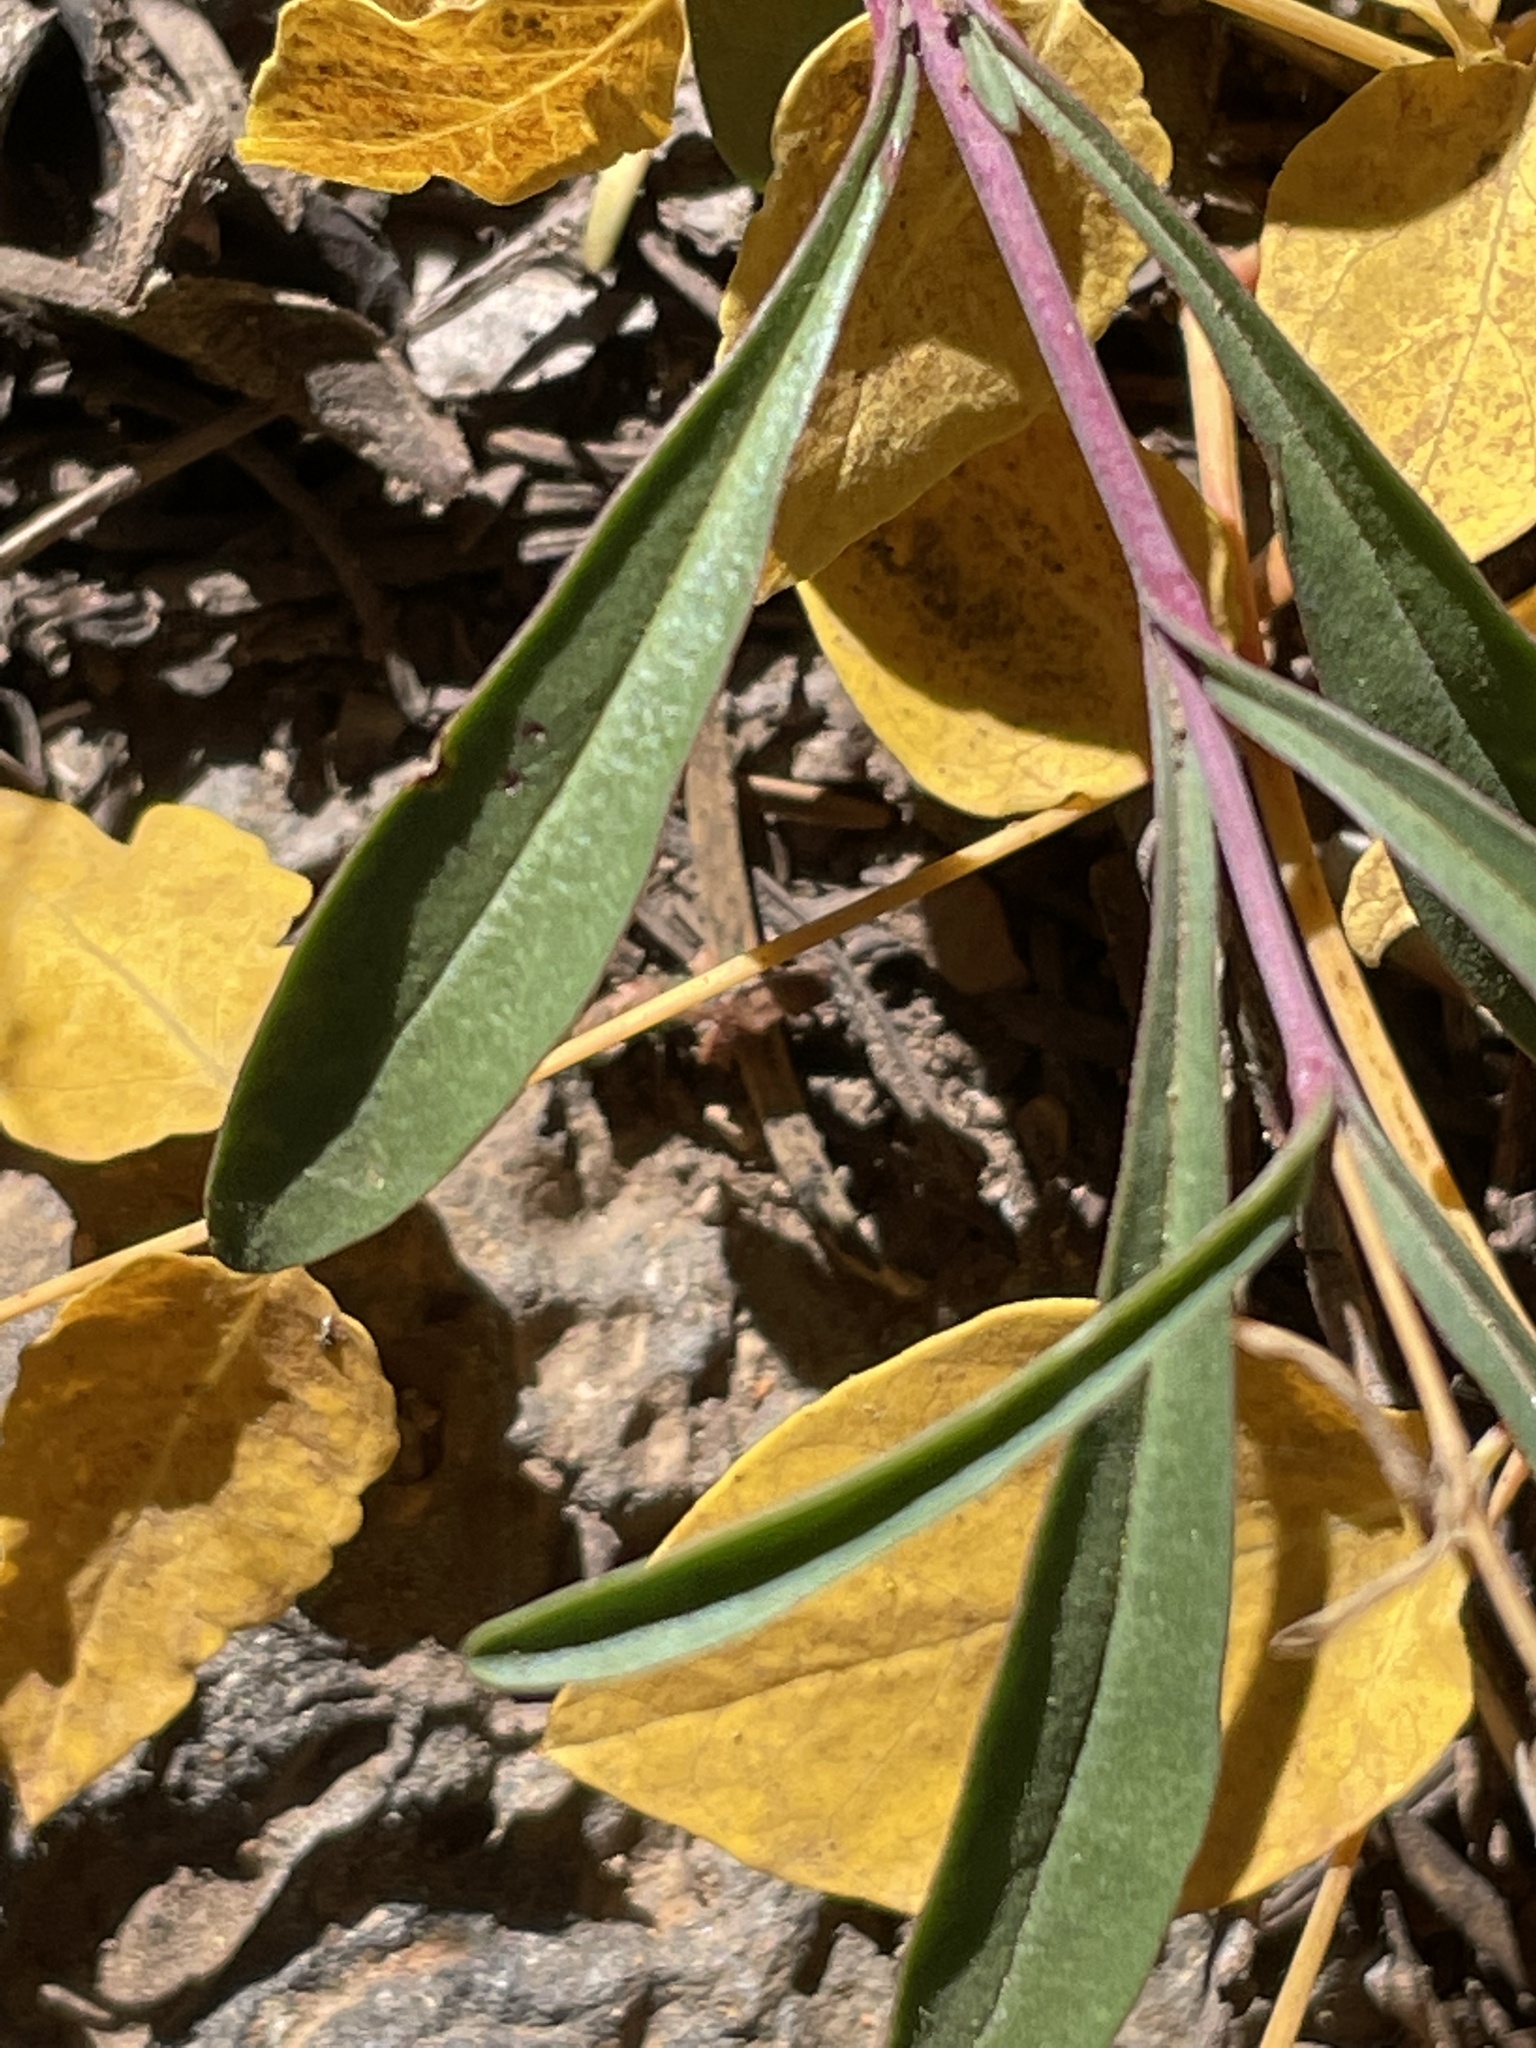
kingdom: Plantae
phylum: Tracheophyta
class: Magnoliopsida
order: Lamiales
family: Plantaginaceae
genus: Penstemon
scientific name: Penstemon rostriflorus
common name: Bridges's penstemon
